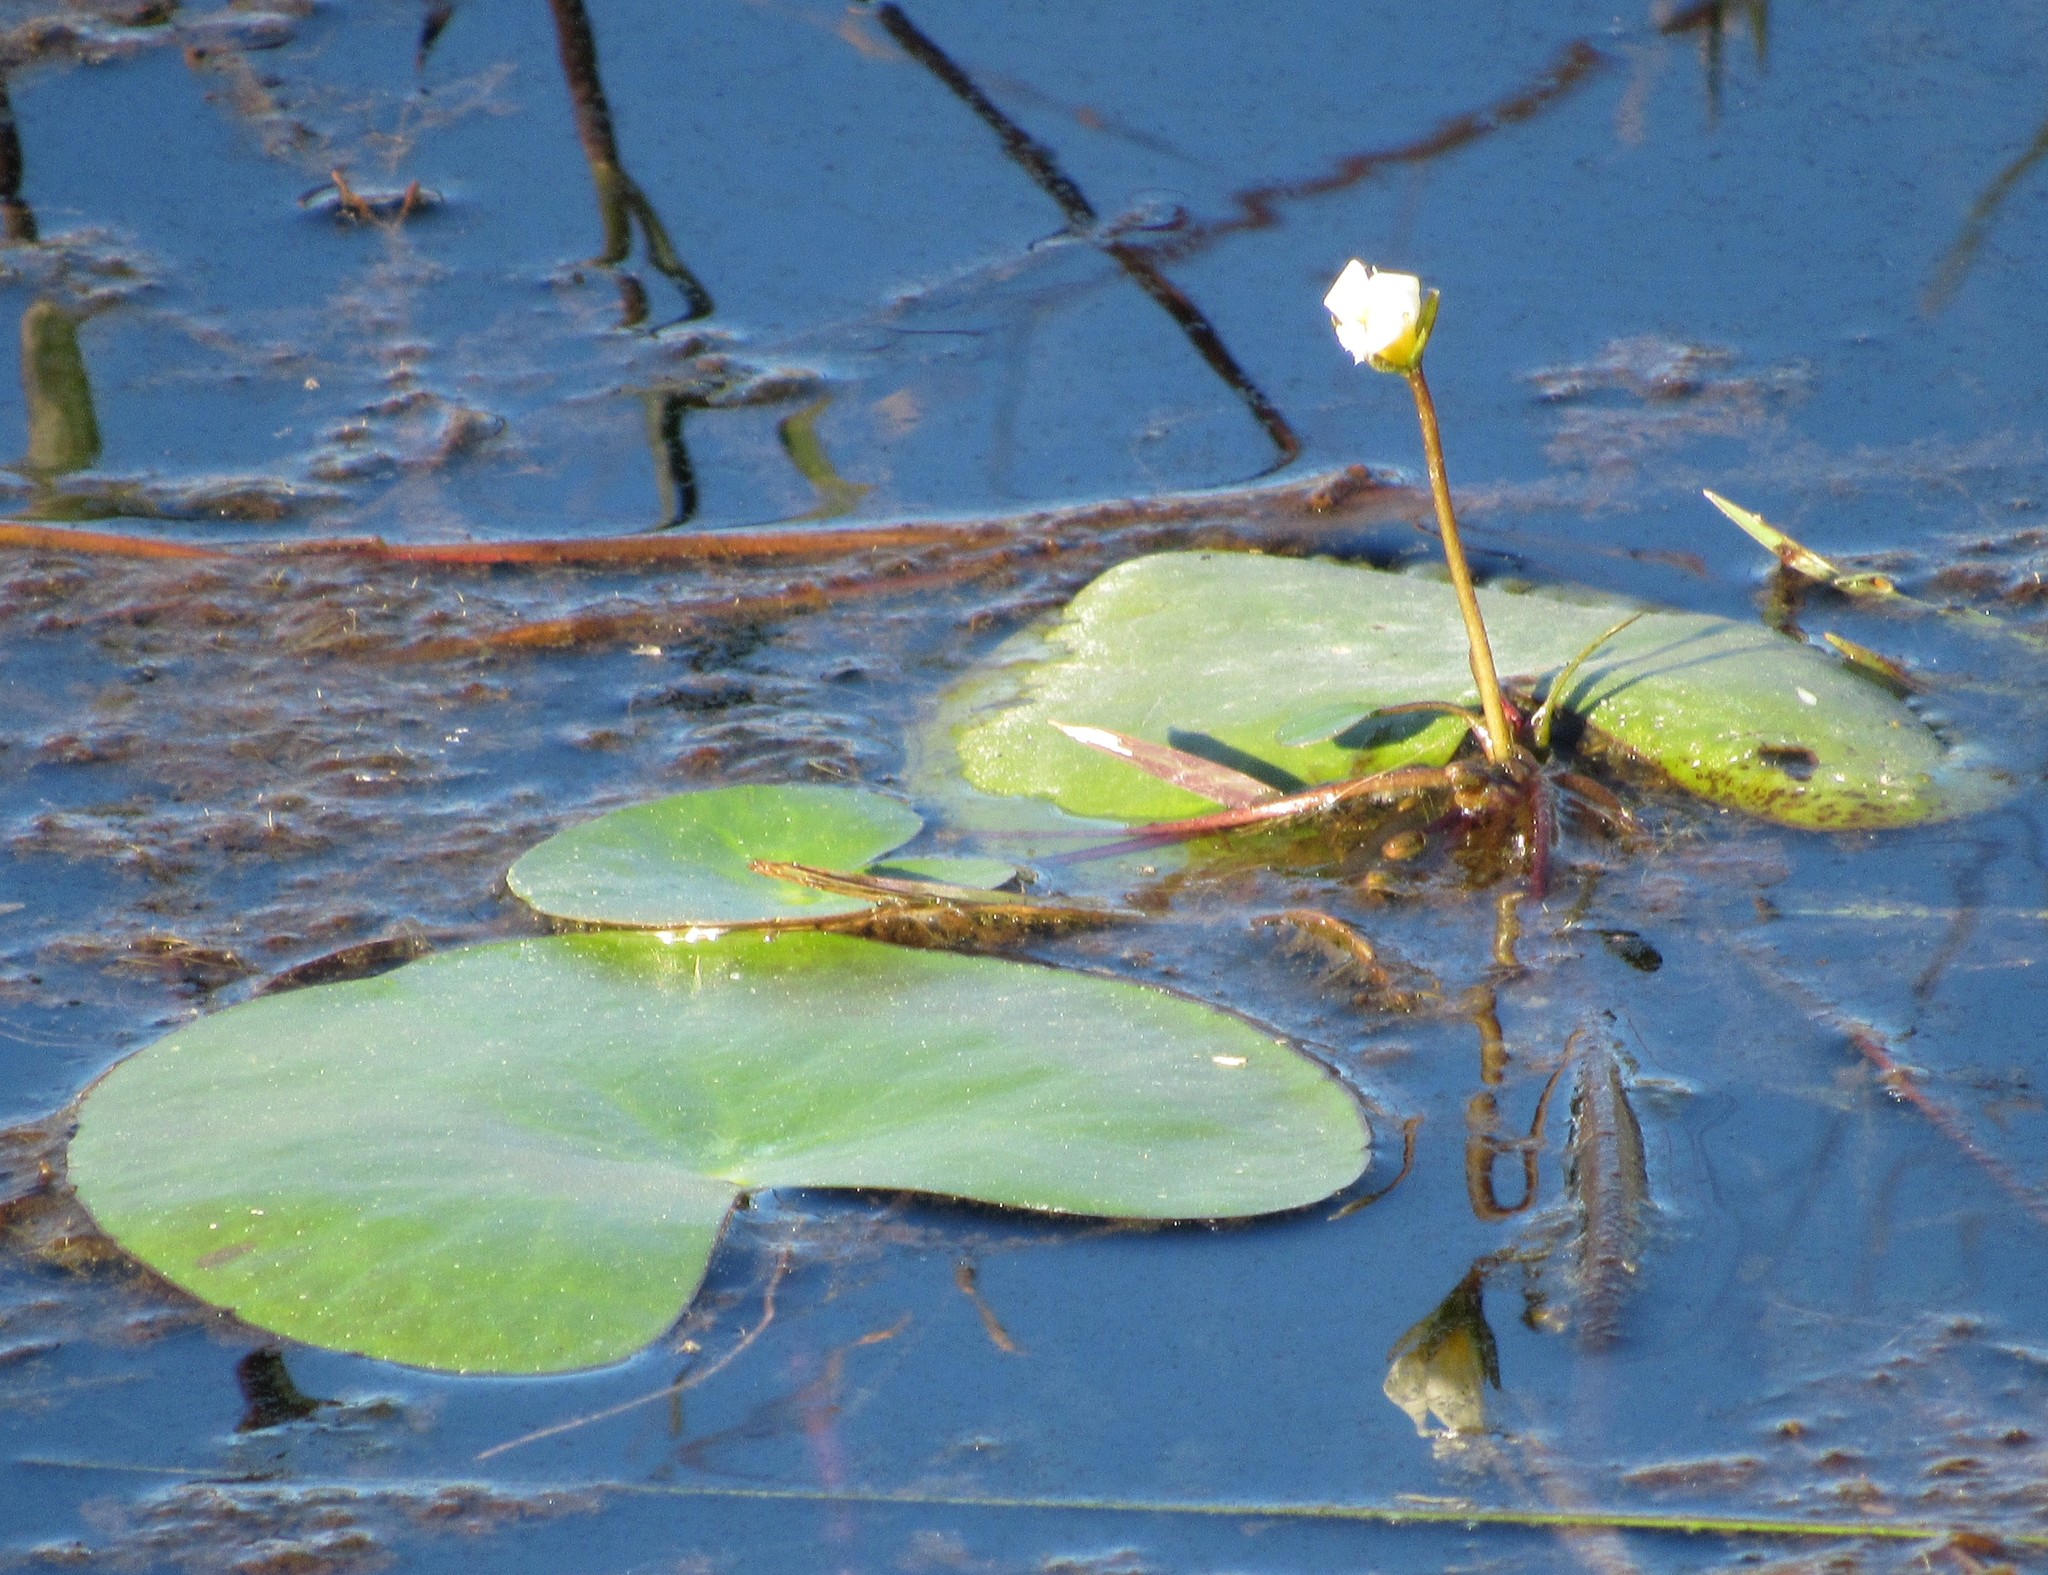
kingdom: Plantae
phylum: Tracheophyta
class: Magnoliopsida
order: Asterales
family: Menyanthaceae
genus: Nymphoides
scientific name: Nymphoides humboldtiana
